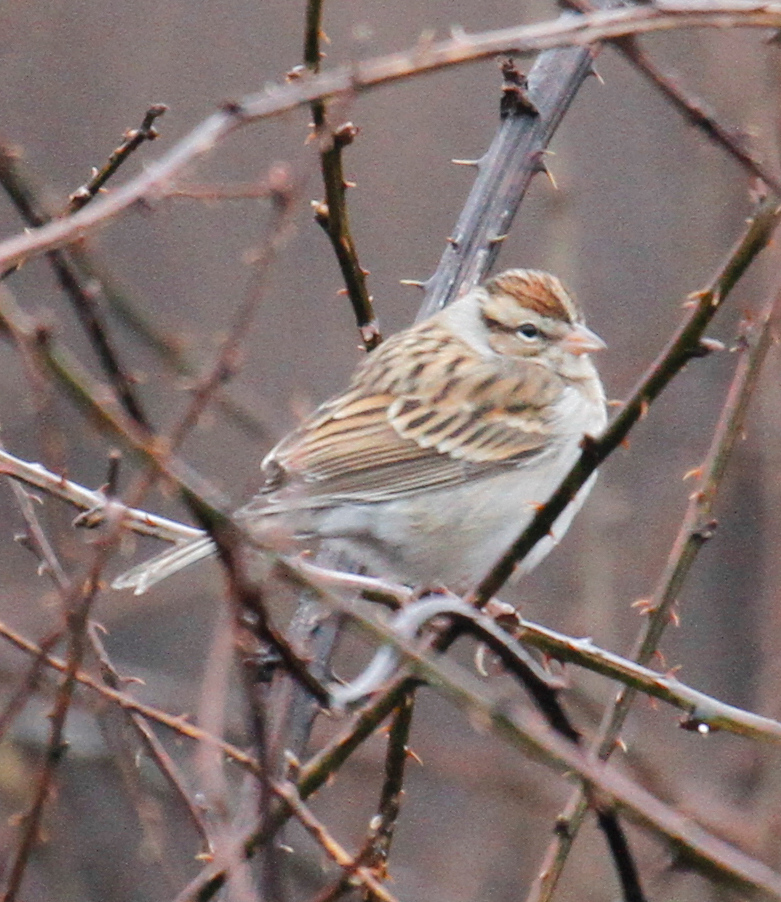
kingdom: Animalia
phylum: Chordata
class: Aves
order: Passeriformes
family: Passerellidae
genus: Spizella
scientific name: Spizella passerina
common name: Chipping sparrow
